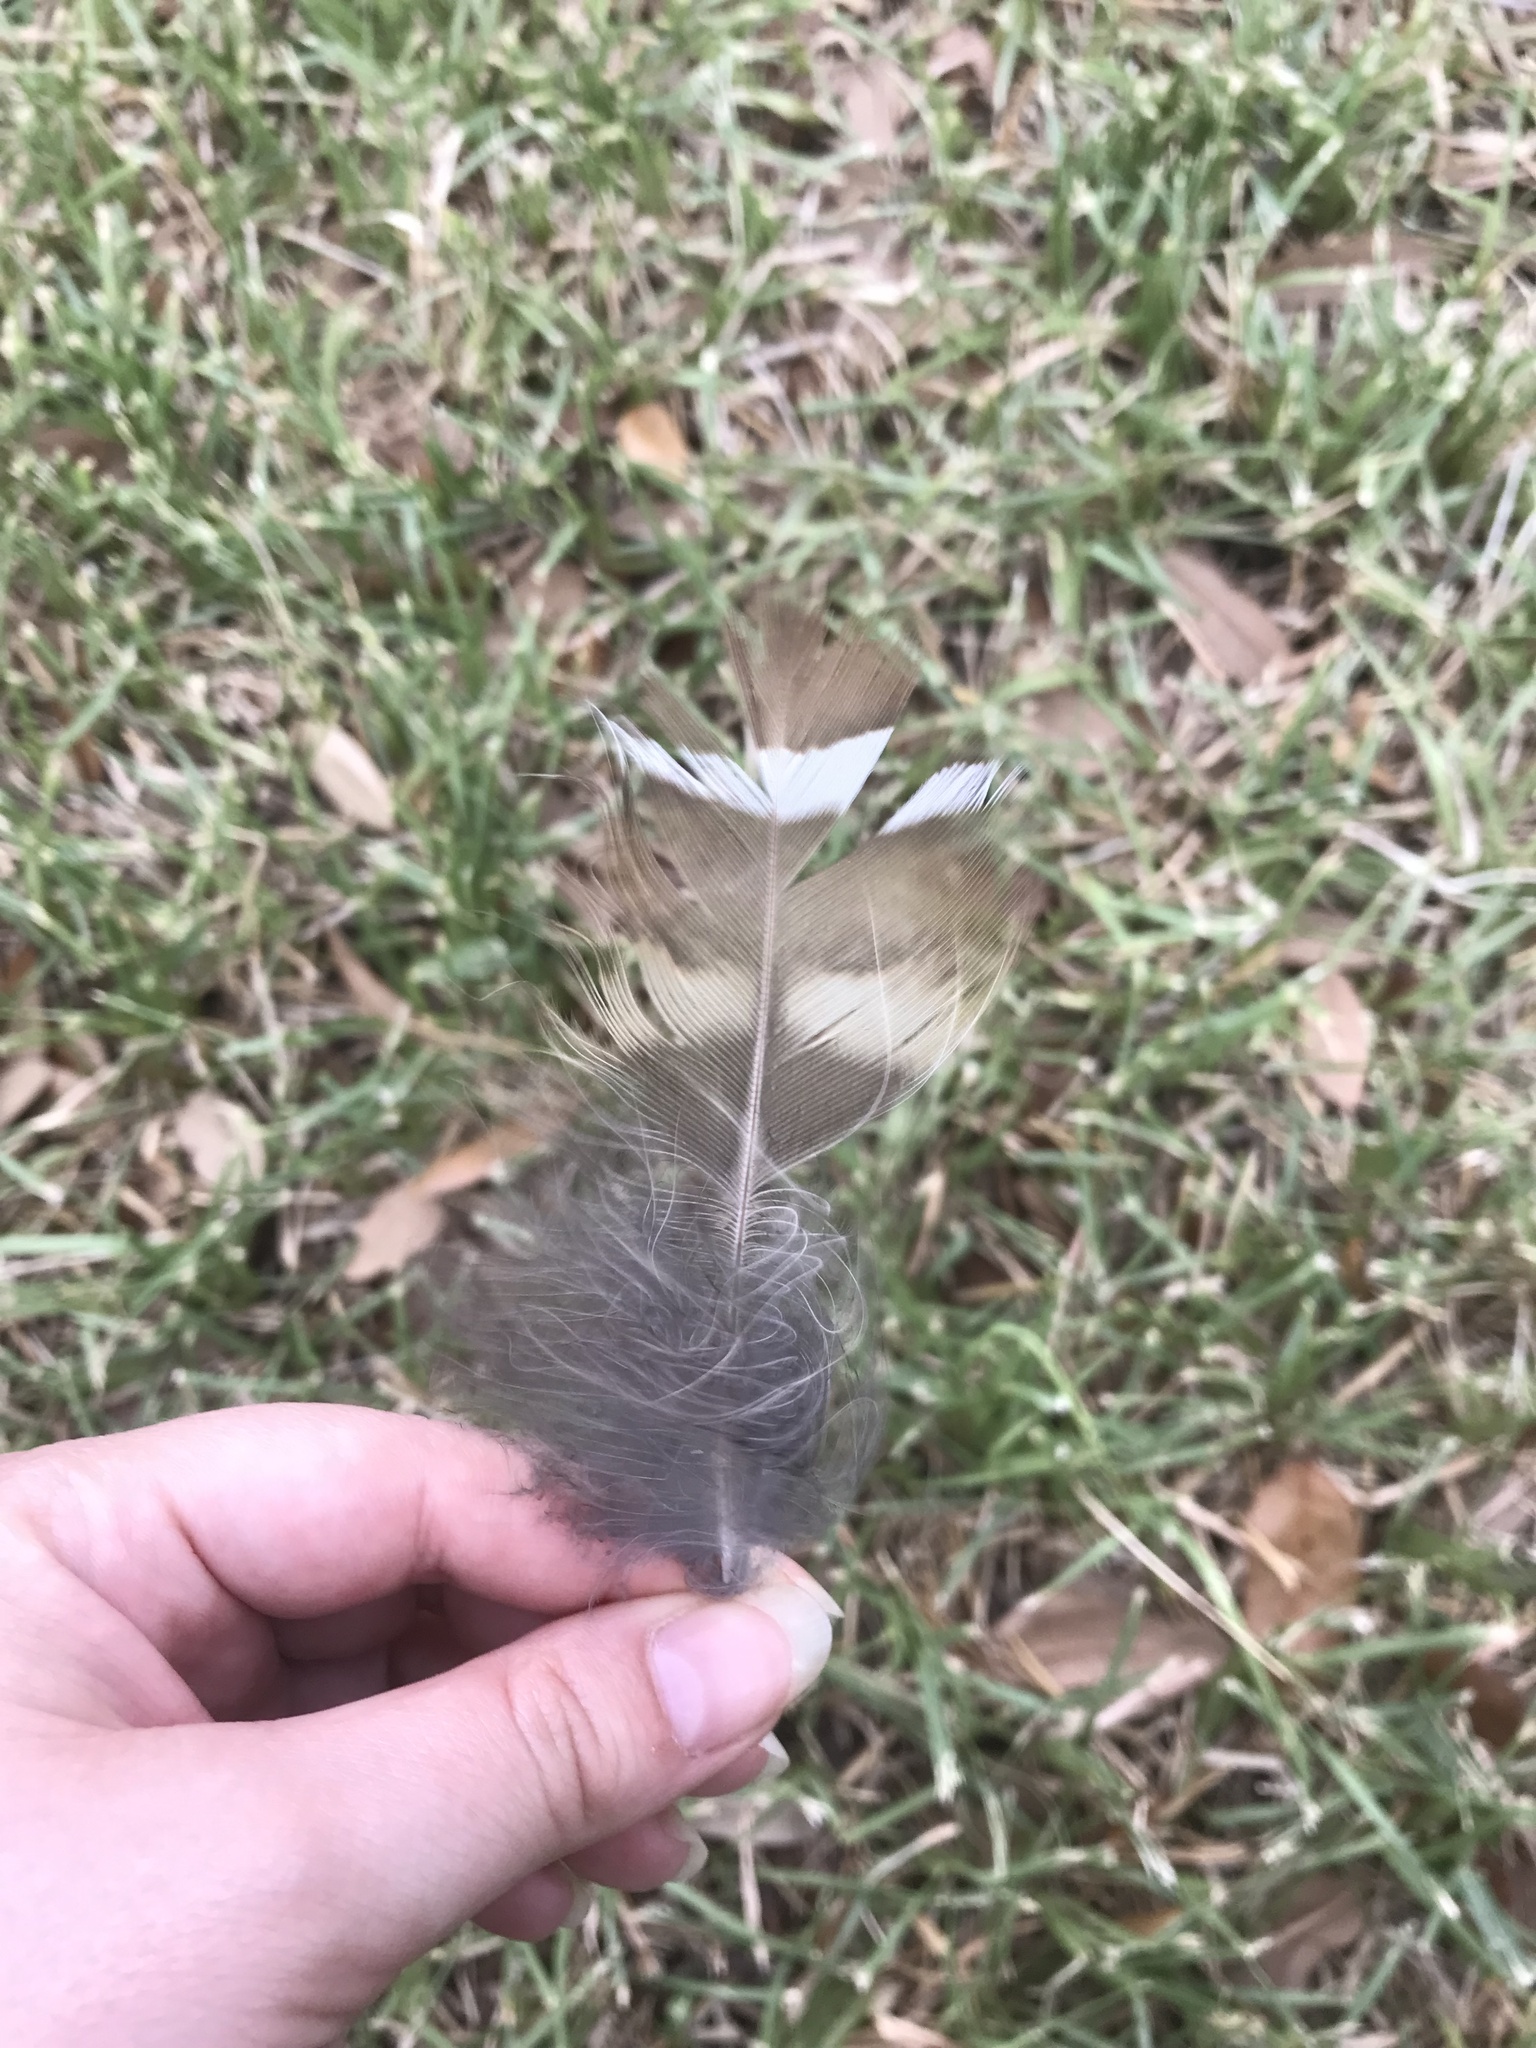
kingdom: Animalia
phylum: Chordata
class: Aves
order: Strigiformes
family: Strigidae
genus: Strix
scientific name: Strix varia
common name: Barred owl
